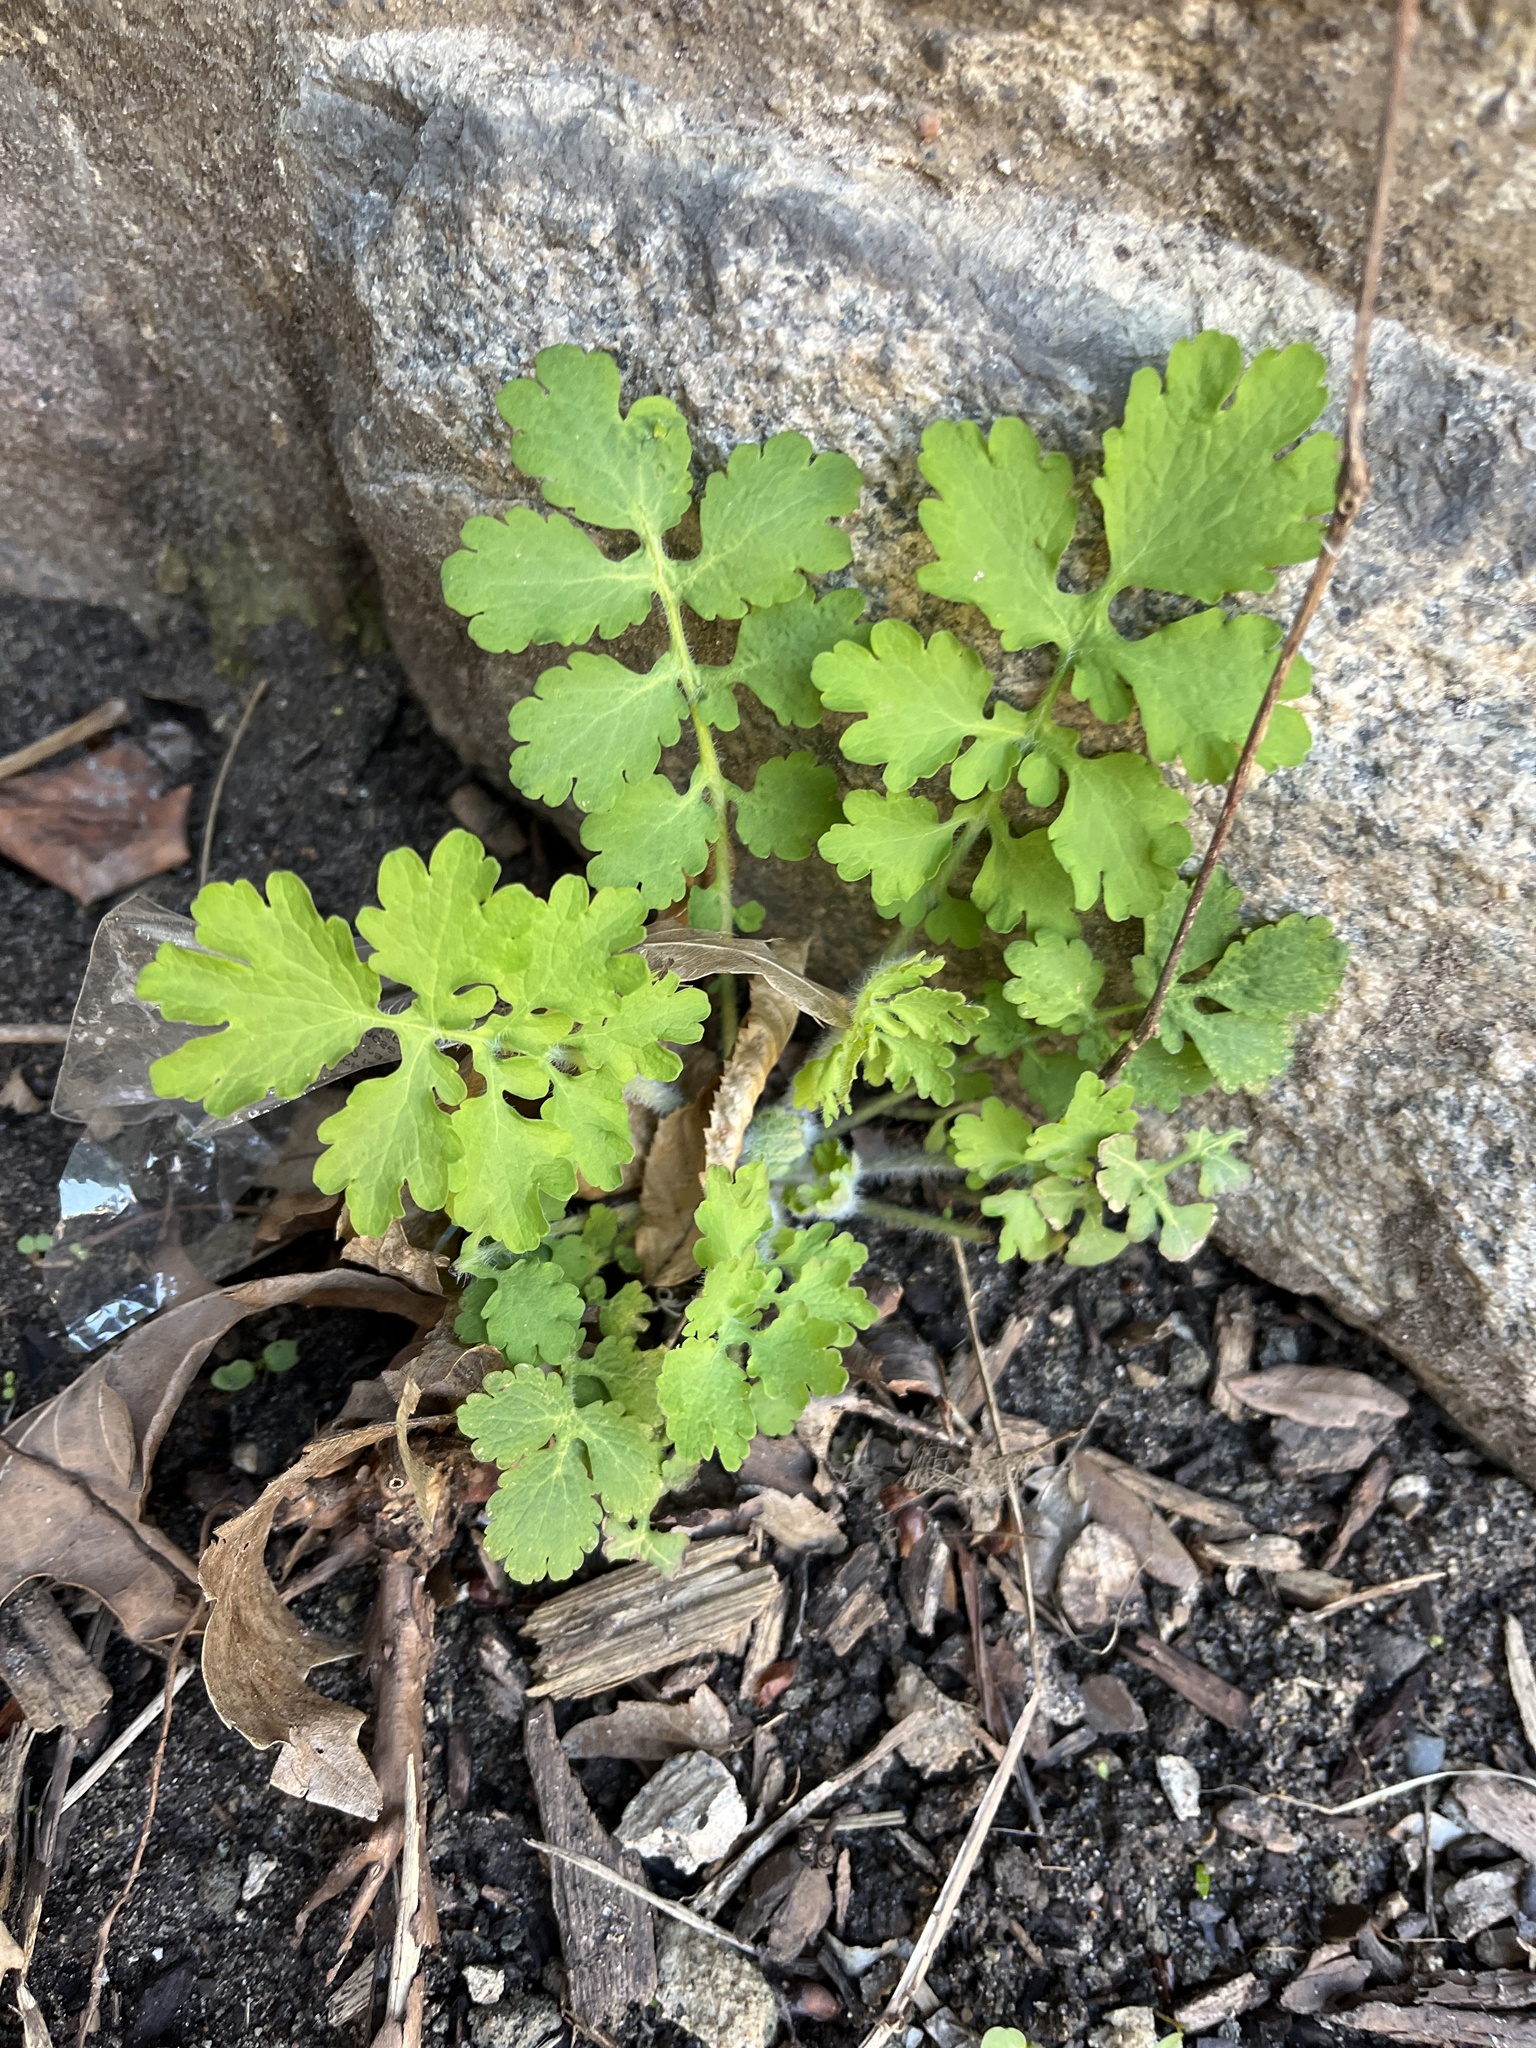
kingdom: Plantae
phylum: Tracheophyta
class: Magnoliopsida
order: Ranunculales
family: Papaveraceae
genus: Chelidonium
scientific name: Chelidonium majus
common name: Greater celandine
